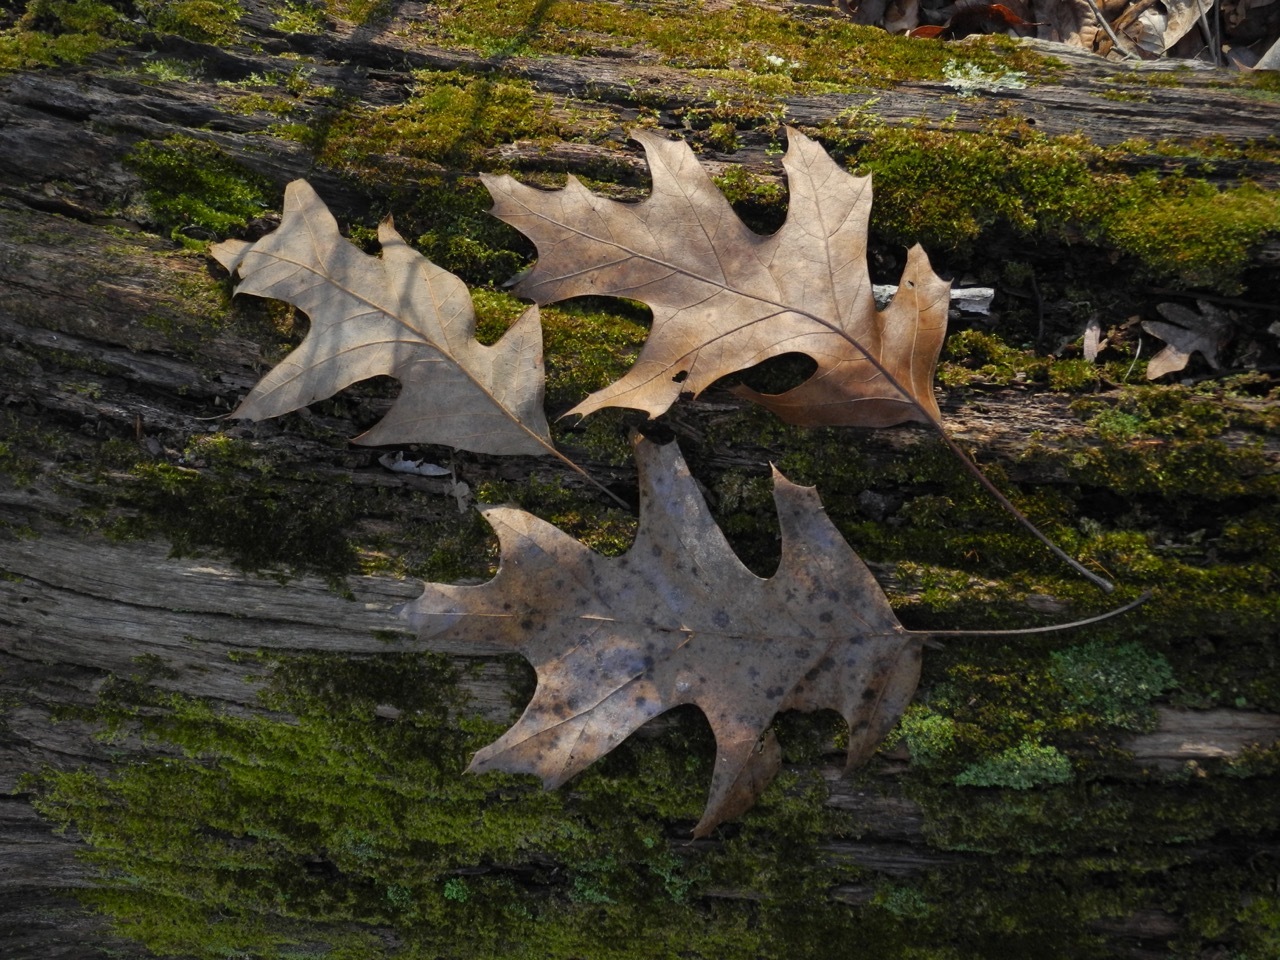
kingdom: Plantae
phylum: Tracheophyta
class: Magnoliopsida
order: Fagales
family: Fagaceae
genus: Quercus
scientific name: Quercus coccinea
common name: Scarlet oak
